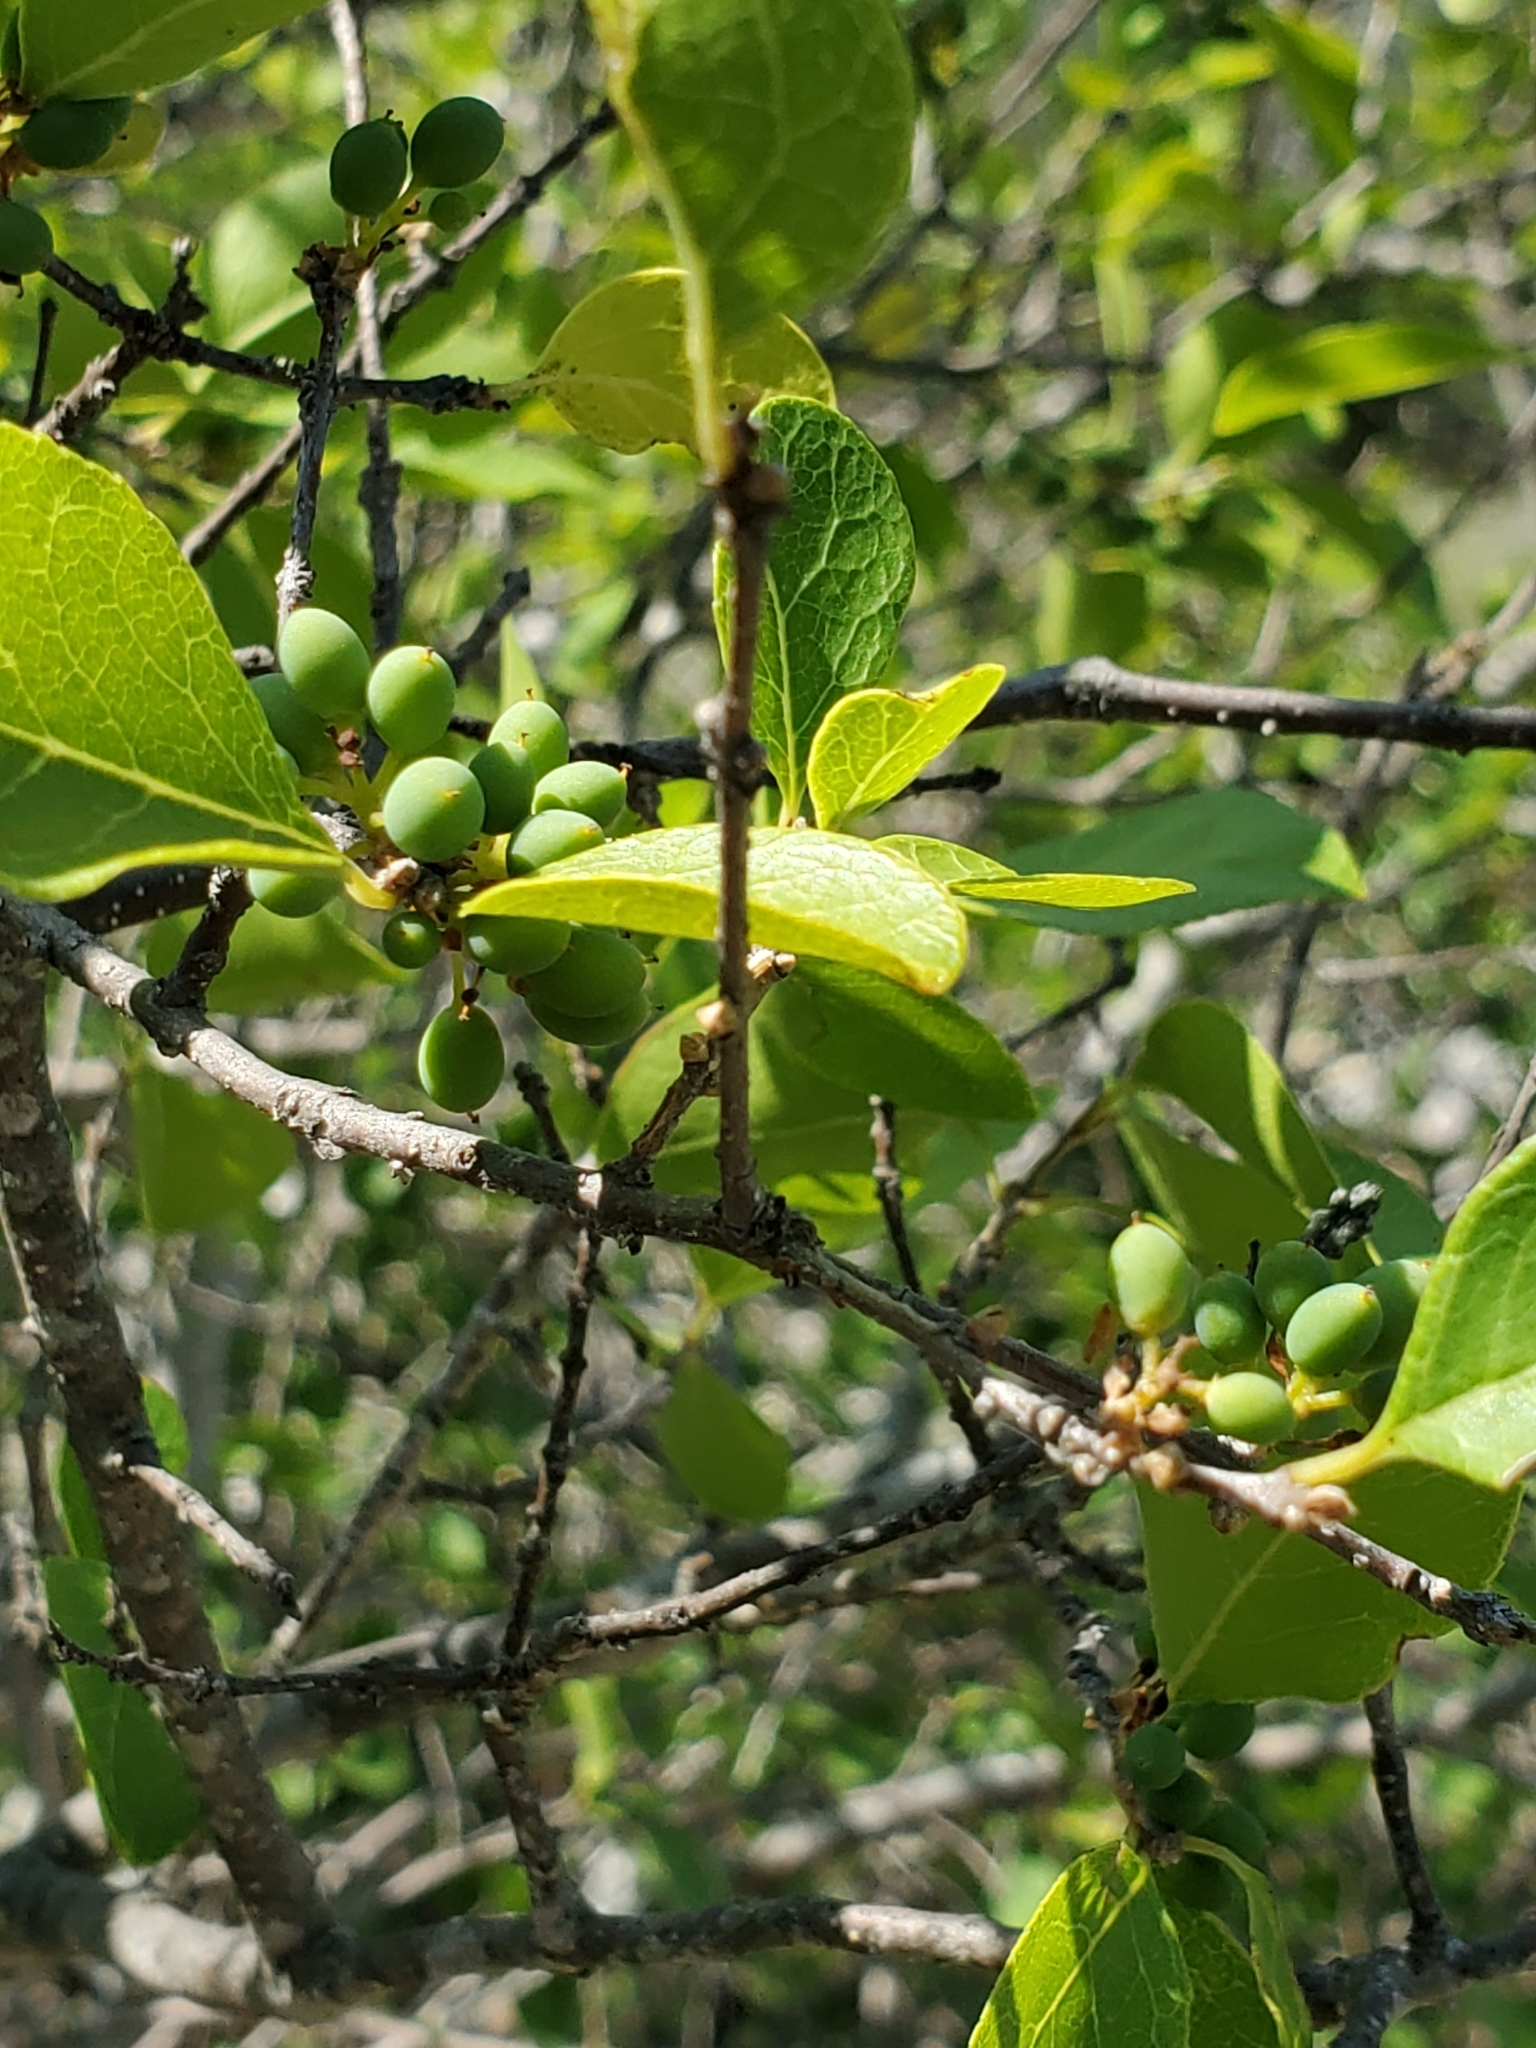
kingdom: Plantae
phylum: Tracheophyta
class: Magnoliopsida
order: Lamiales
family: Oleaceae
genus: Forestiera
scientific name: Forestiera reticulata
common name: Netleaf swamp-privet
